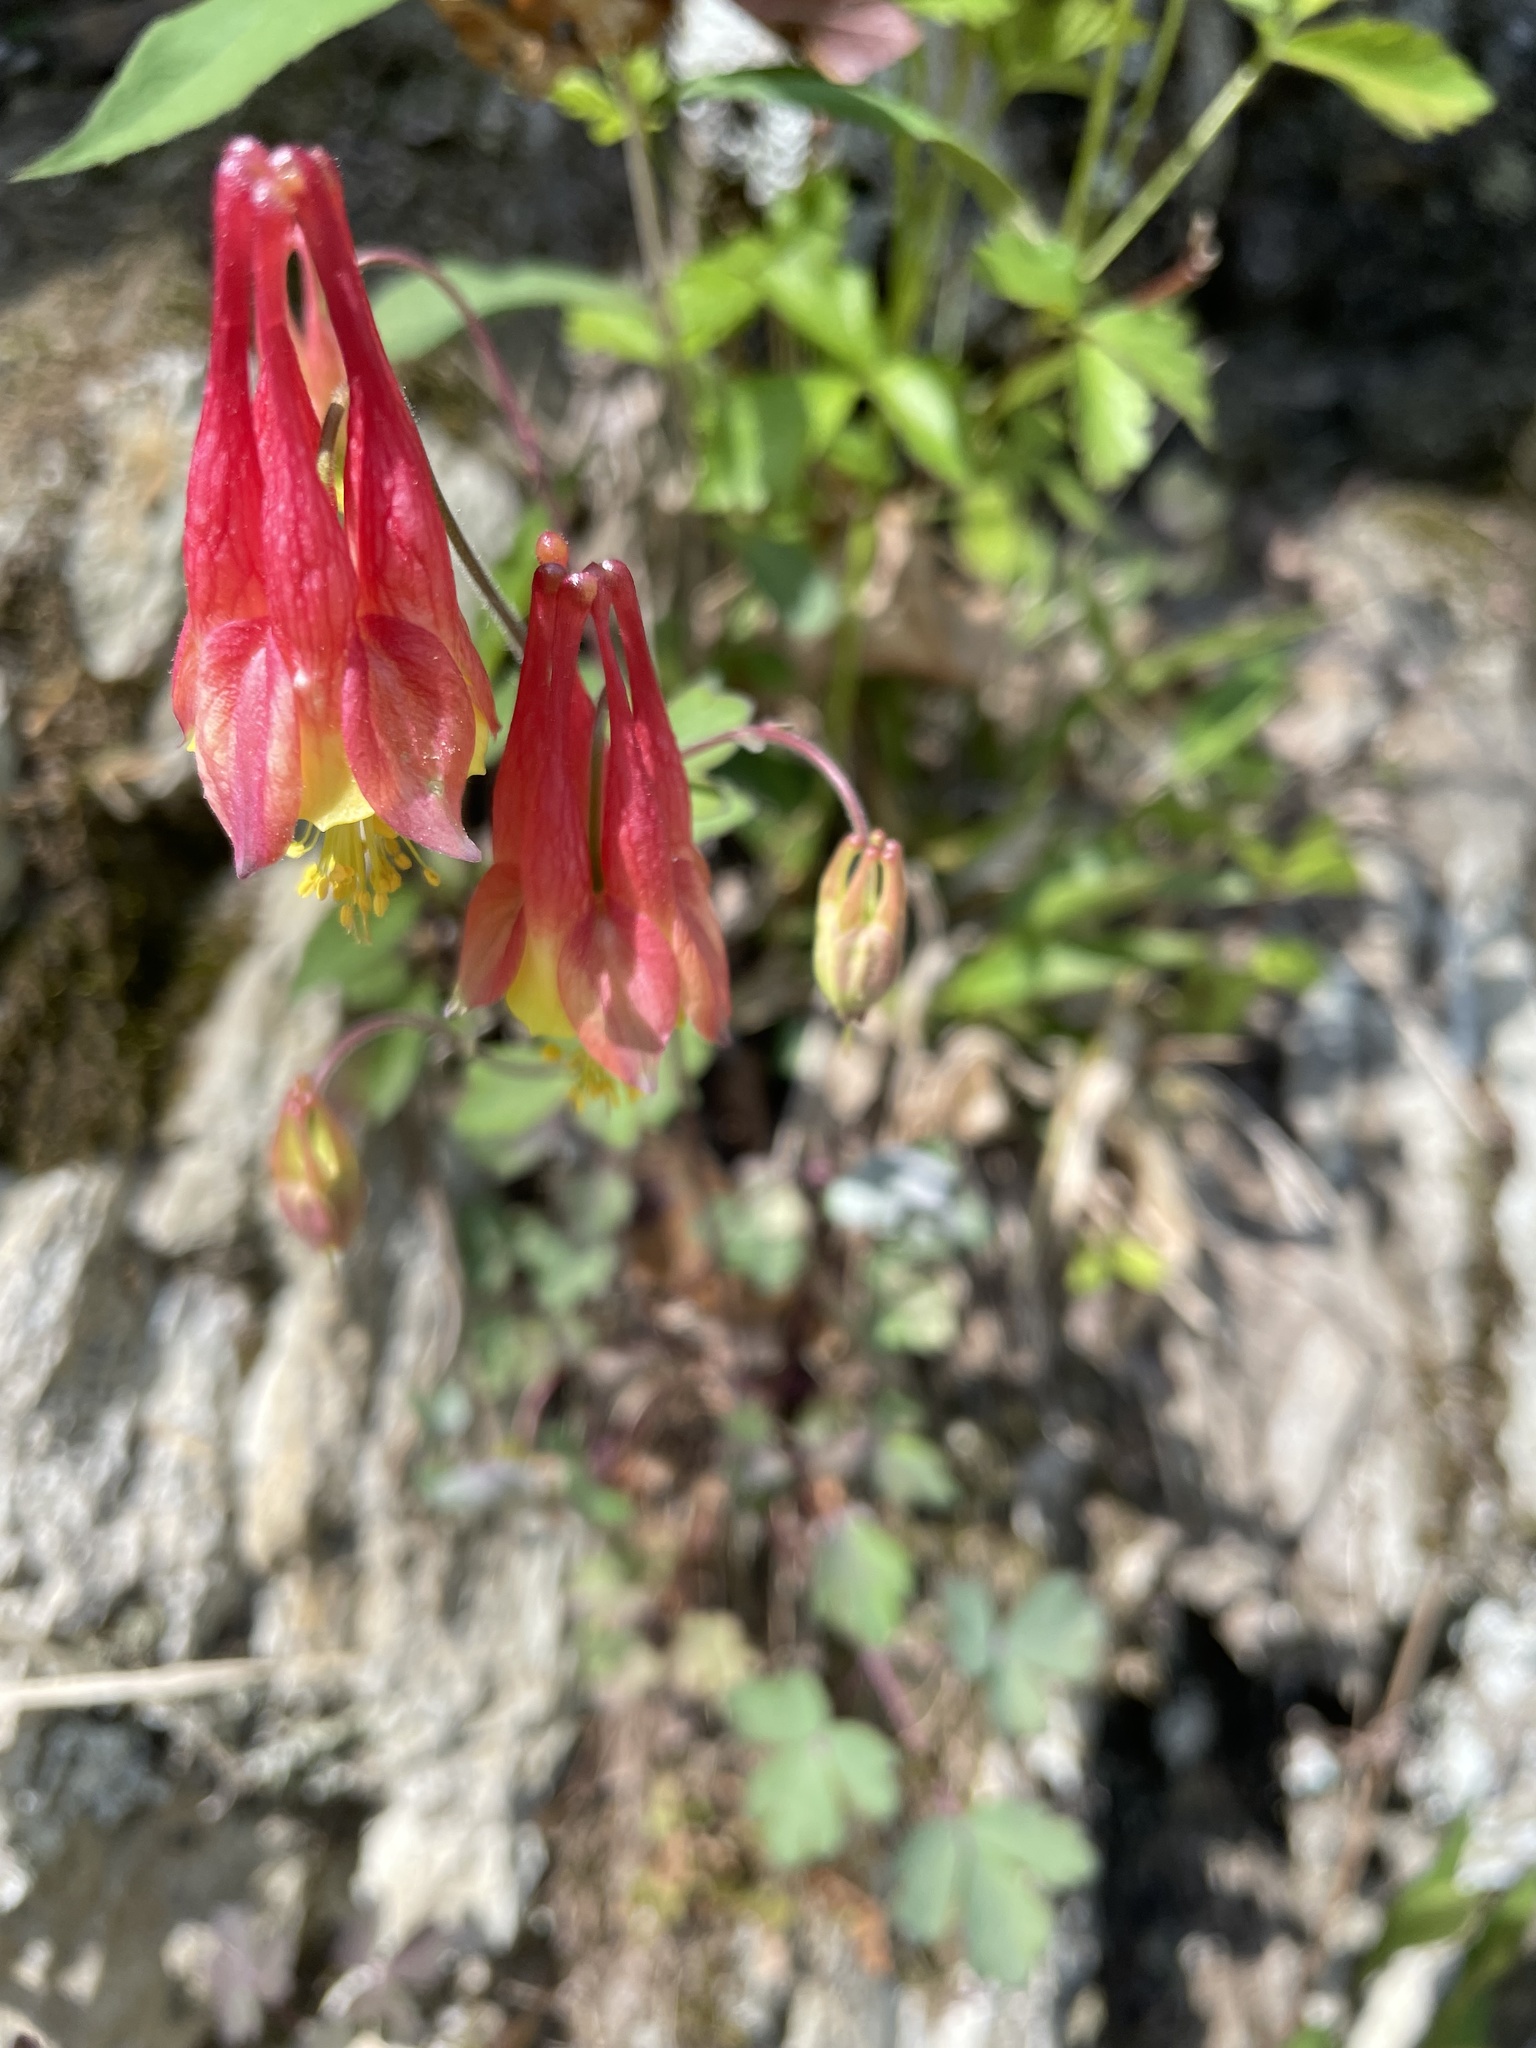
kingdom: Plantae
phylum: Tracheophyta
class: Magnoliopsida
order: Ranunculales
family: Ranunculaceae
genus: Aquilegia
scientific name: Aquilegia canadensis
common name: American columbine
